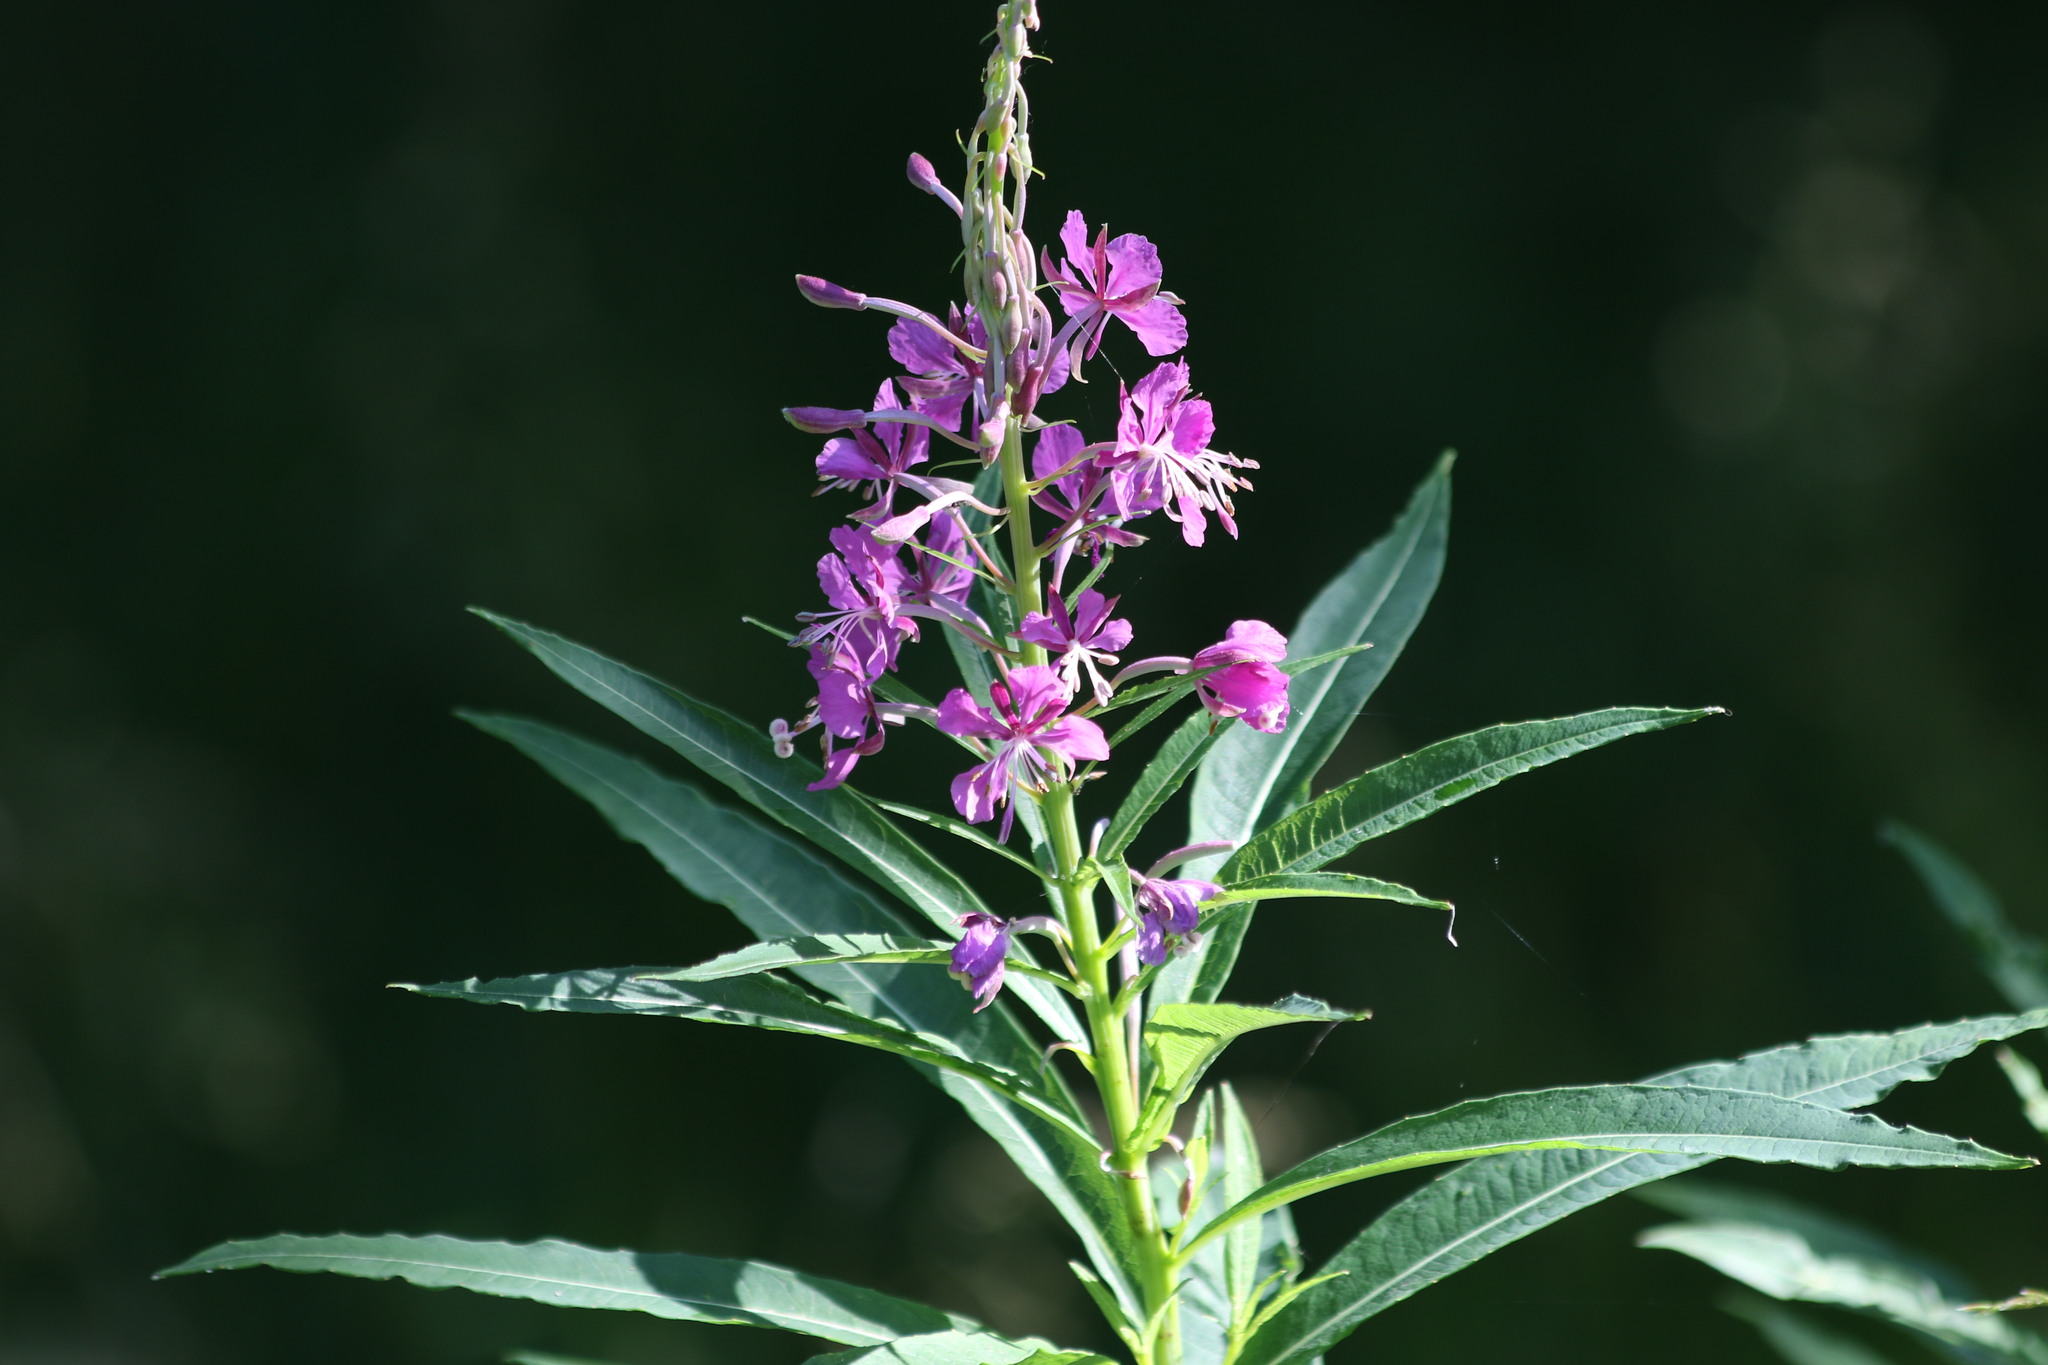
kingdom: Plantae
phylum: Tracheophyta
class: Magnoliopsida
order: Myrtales
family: Onagraceae
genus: Chamaenerion
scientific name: Chamaenerion angustifolium
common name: Fireweed
